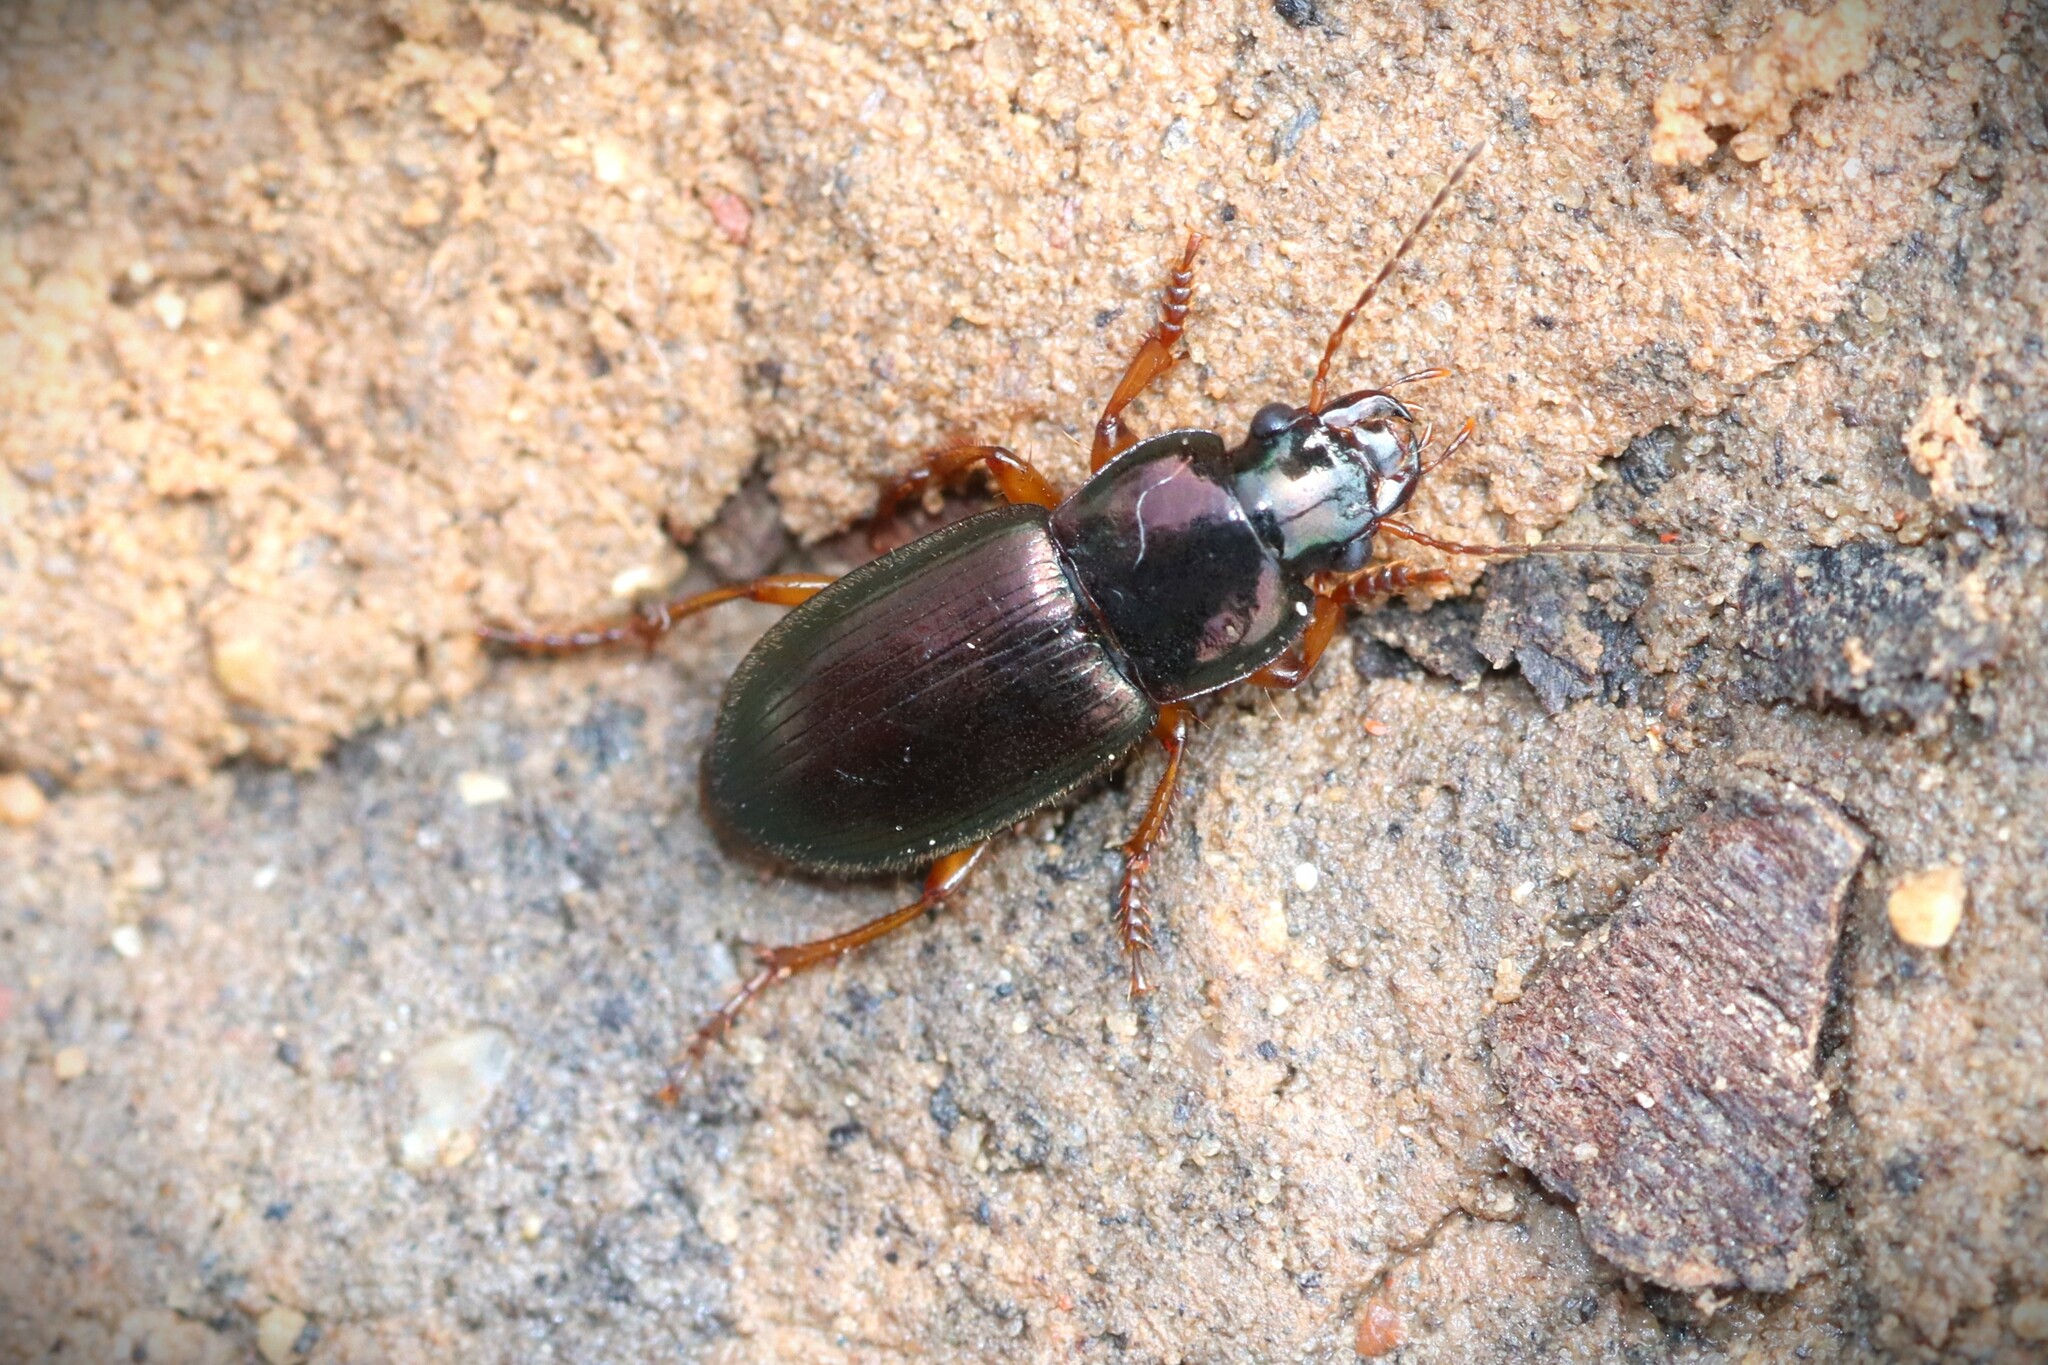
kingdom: Animalia
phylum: Arthropoda
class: Insecta
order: Coleoptera
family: Carabidae
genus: Harpalus
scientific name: Harpalus affinis
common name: Polychrome harp ground beetle
